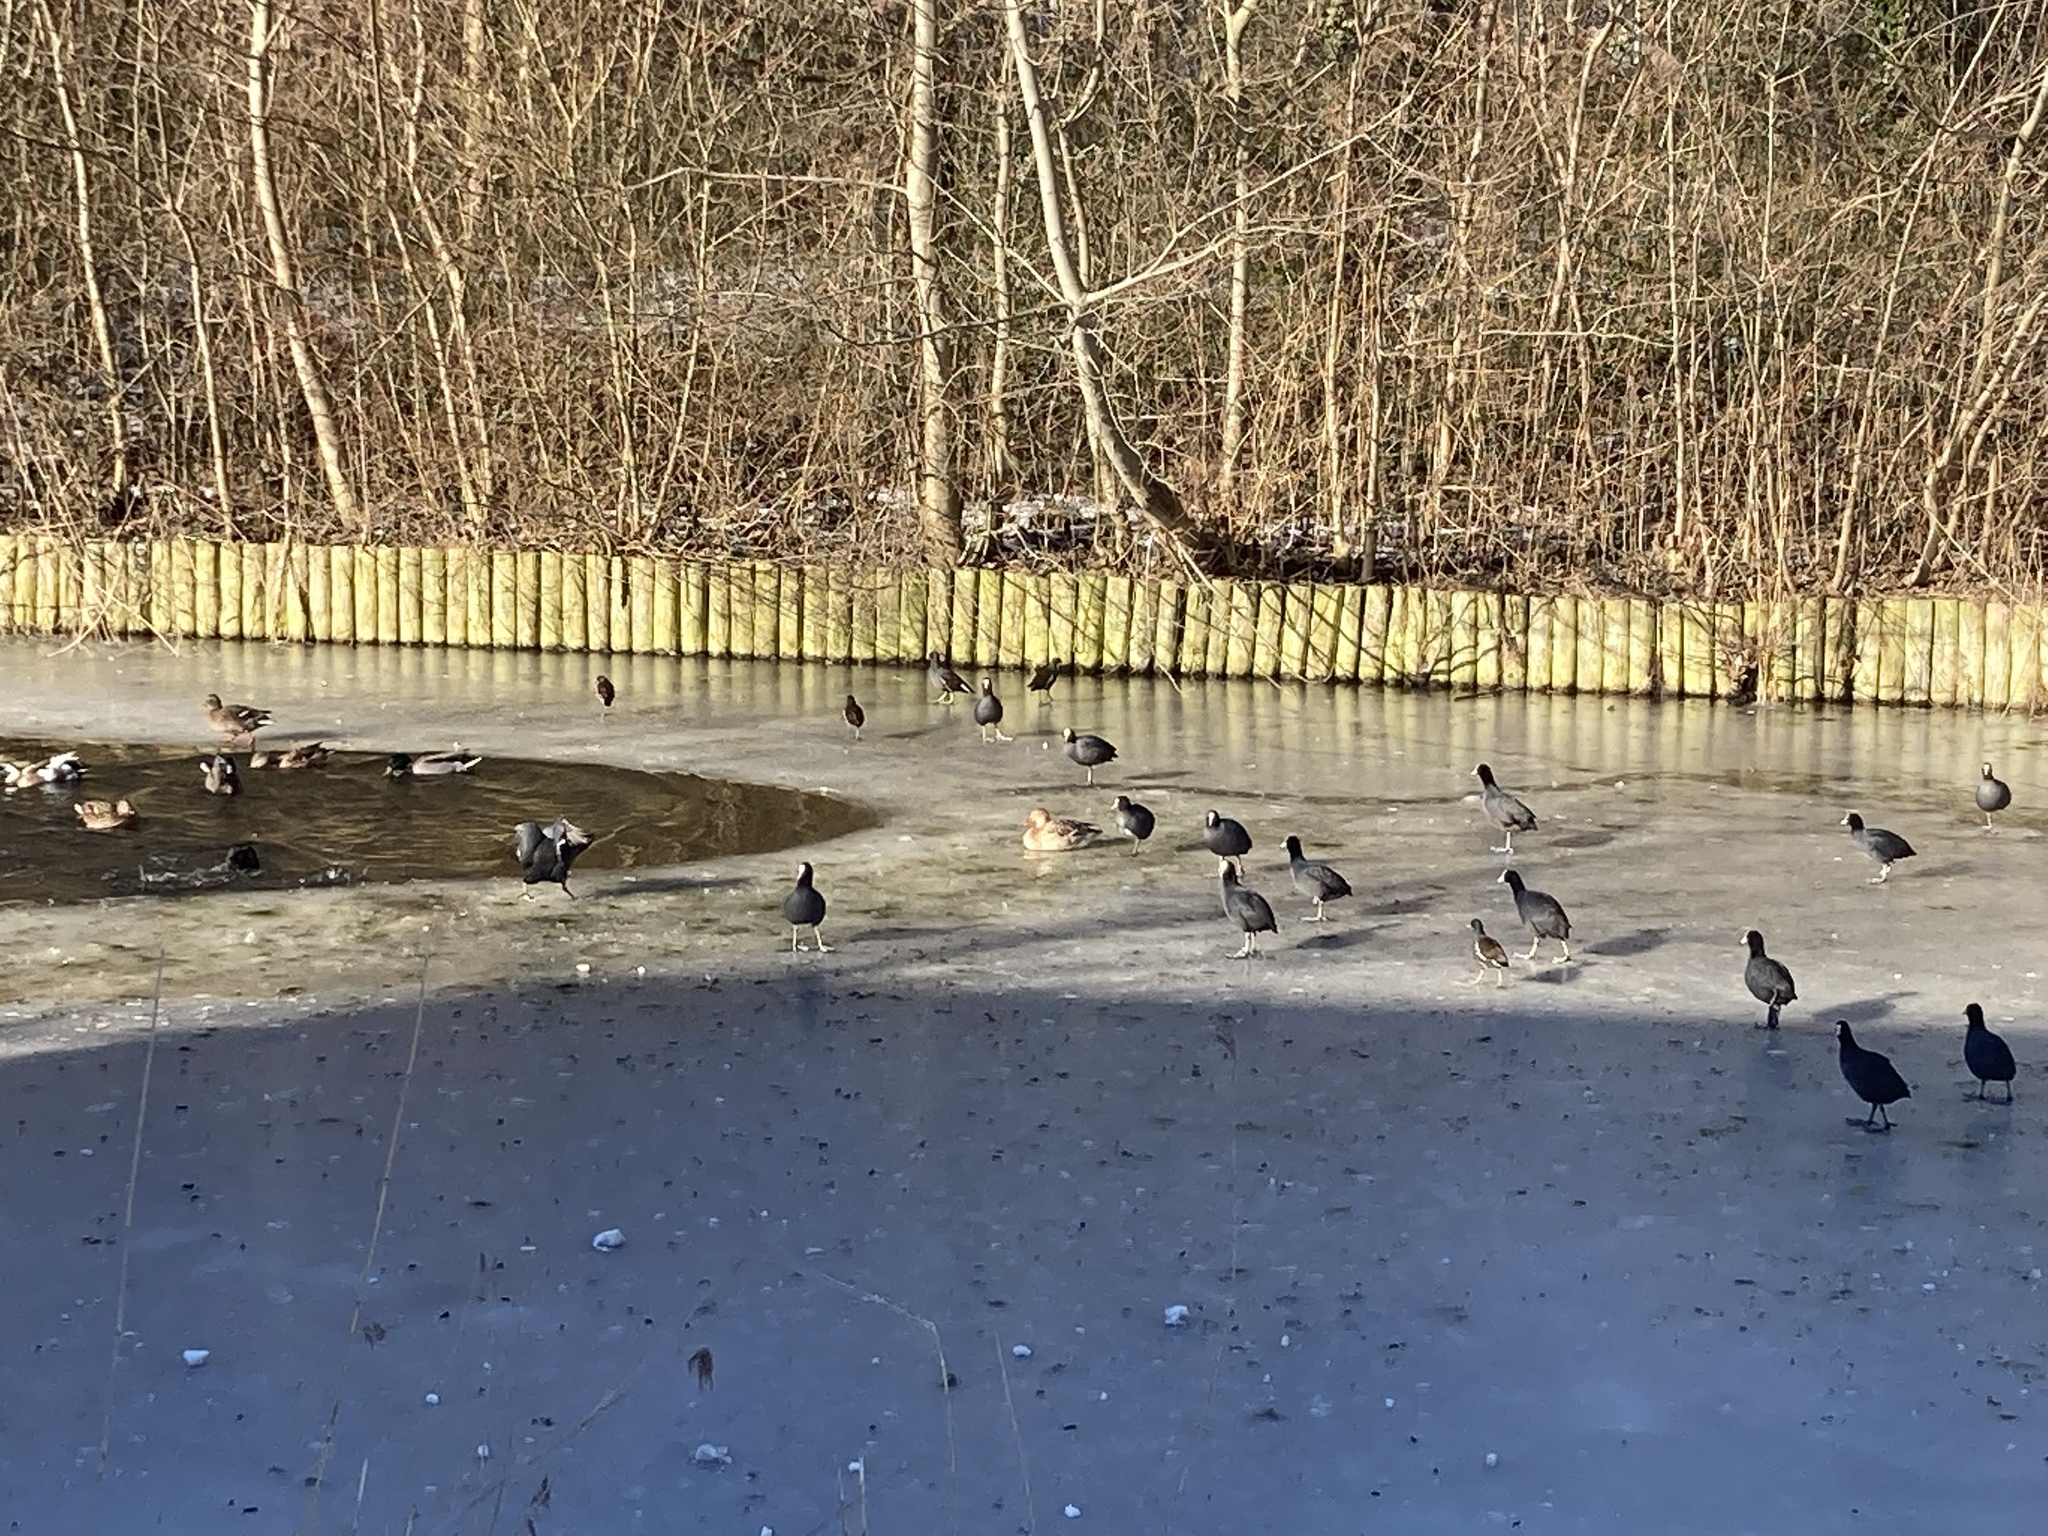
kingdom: Animalia
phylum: Chordata
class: Aves
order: Gruiformes
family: Rallidae
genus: Fulica
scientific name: Fulica atra
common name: Eurasian coot
